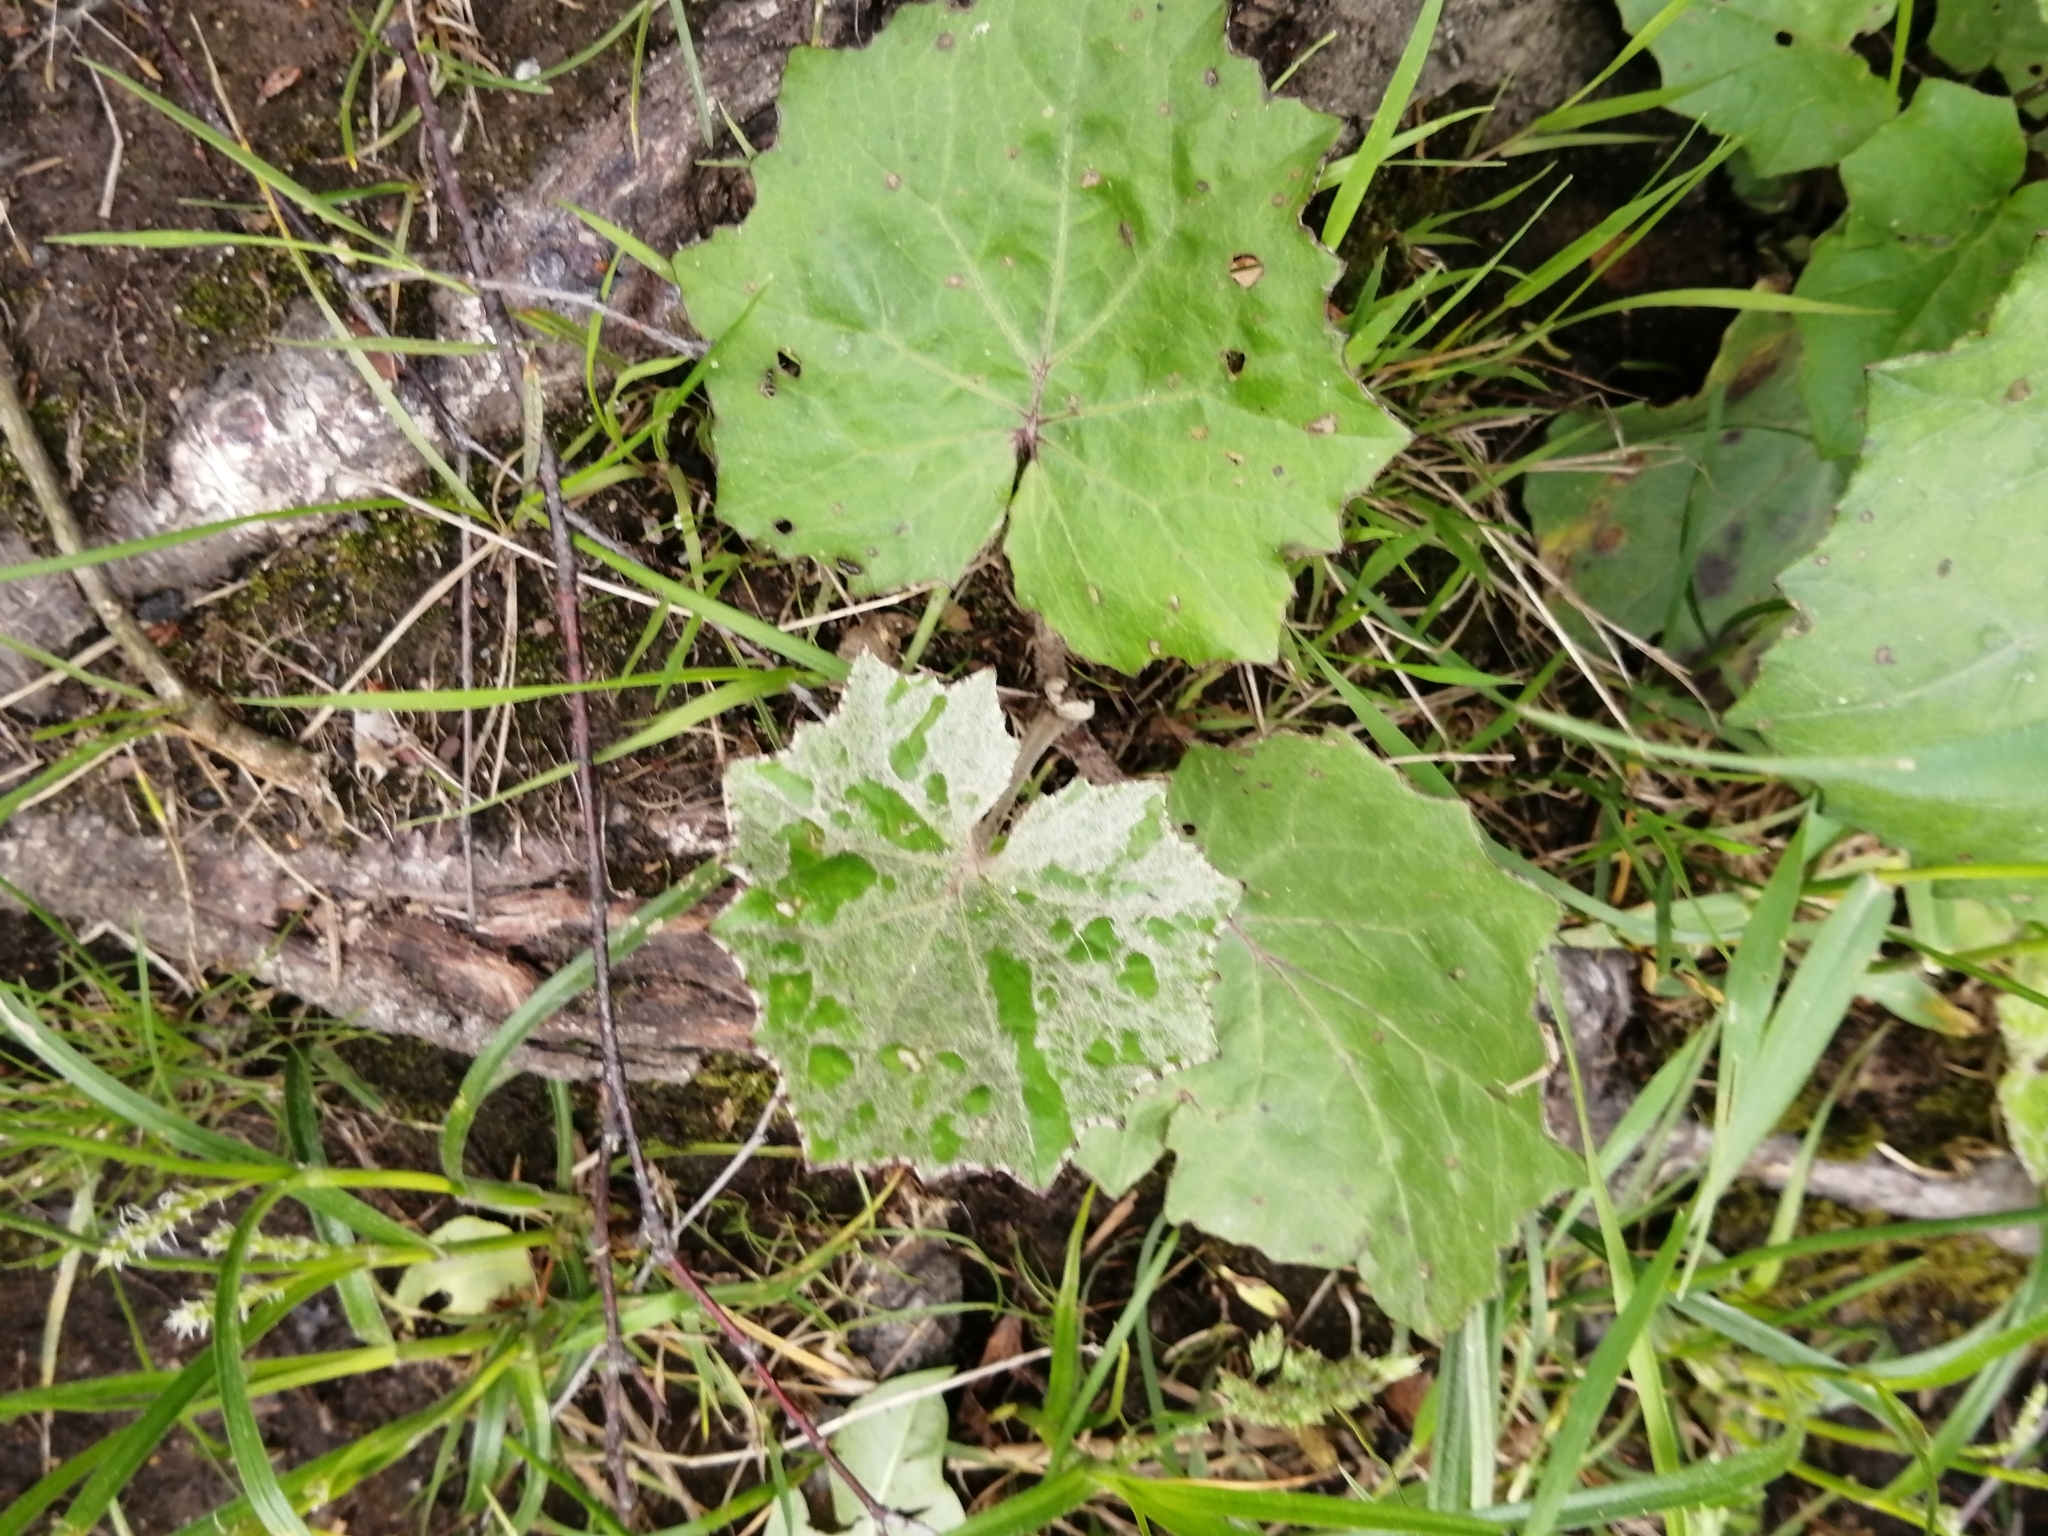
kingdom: Plantae
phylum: Tracheophyta
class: Magnoliopsida
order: Asterales
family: Asteraceae
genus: Tussilago
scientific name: Tussilago farfara
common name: Coltsfoot
